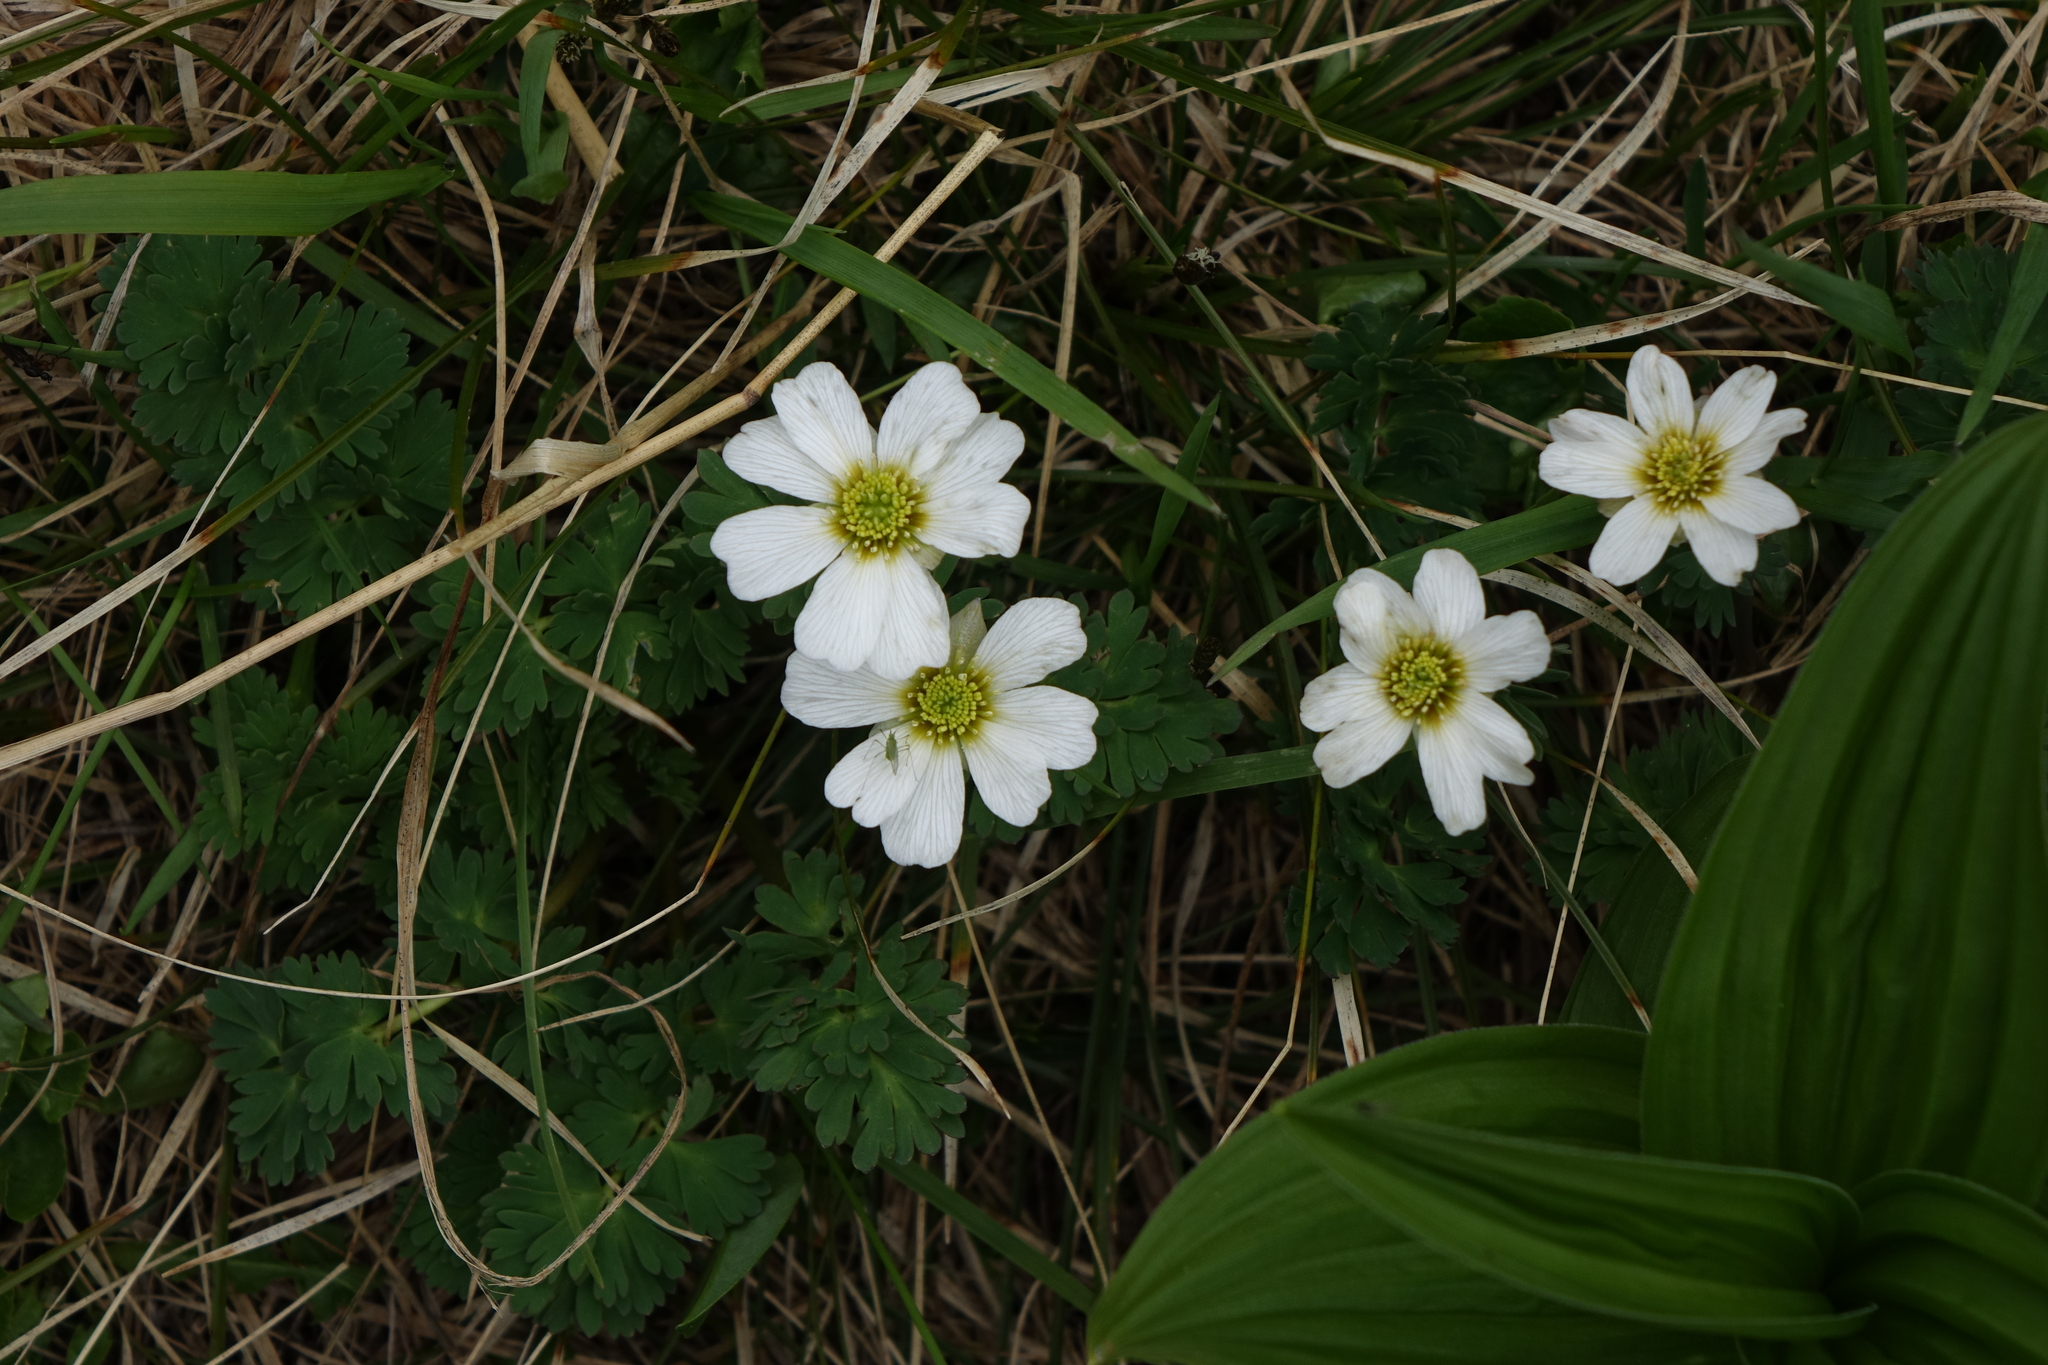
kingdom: Plantae
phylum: Tracheophyta
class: Magnoliopsida
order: Ranunculales
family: Ranunculaceae
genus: Callianthemum
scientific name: Callianthemum sajanense
